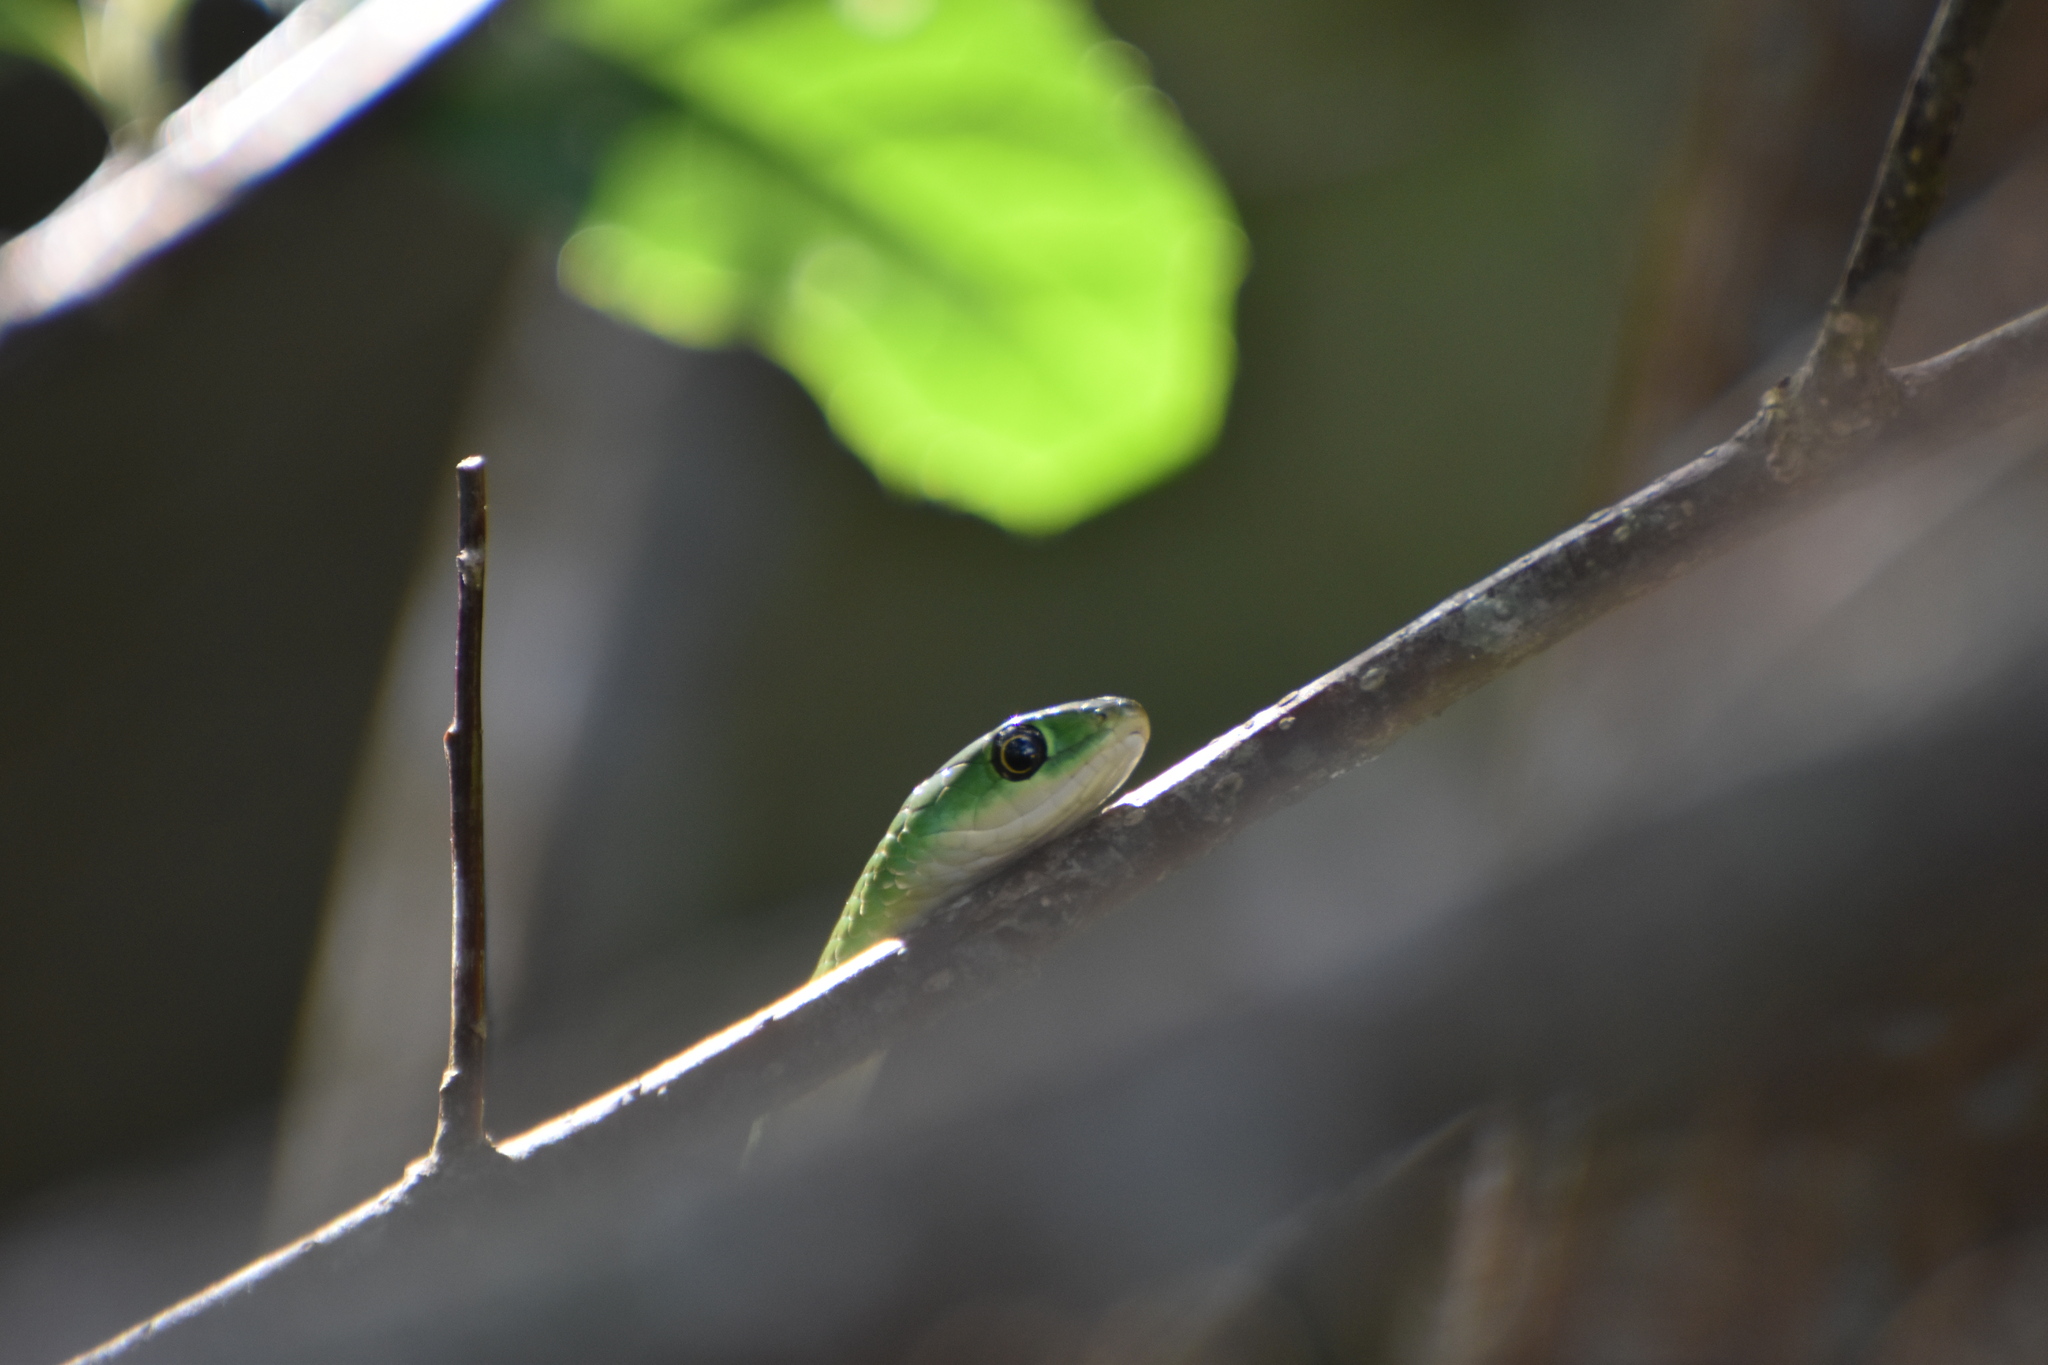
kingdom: Animalia
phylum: Chordata
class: Squamata
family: Colubridae
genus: Philothamnus
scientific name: Philothamnus hoplogaster
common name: Green water snake
